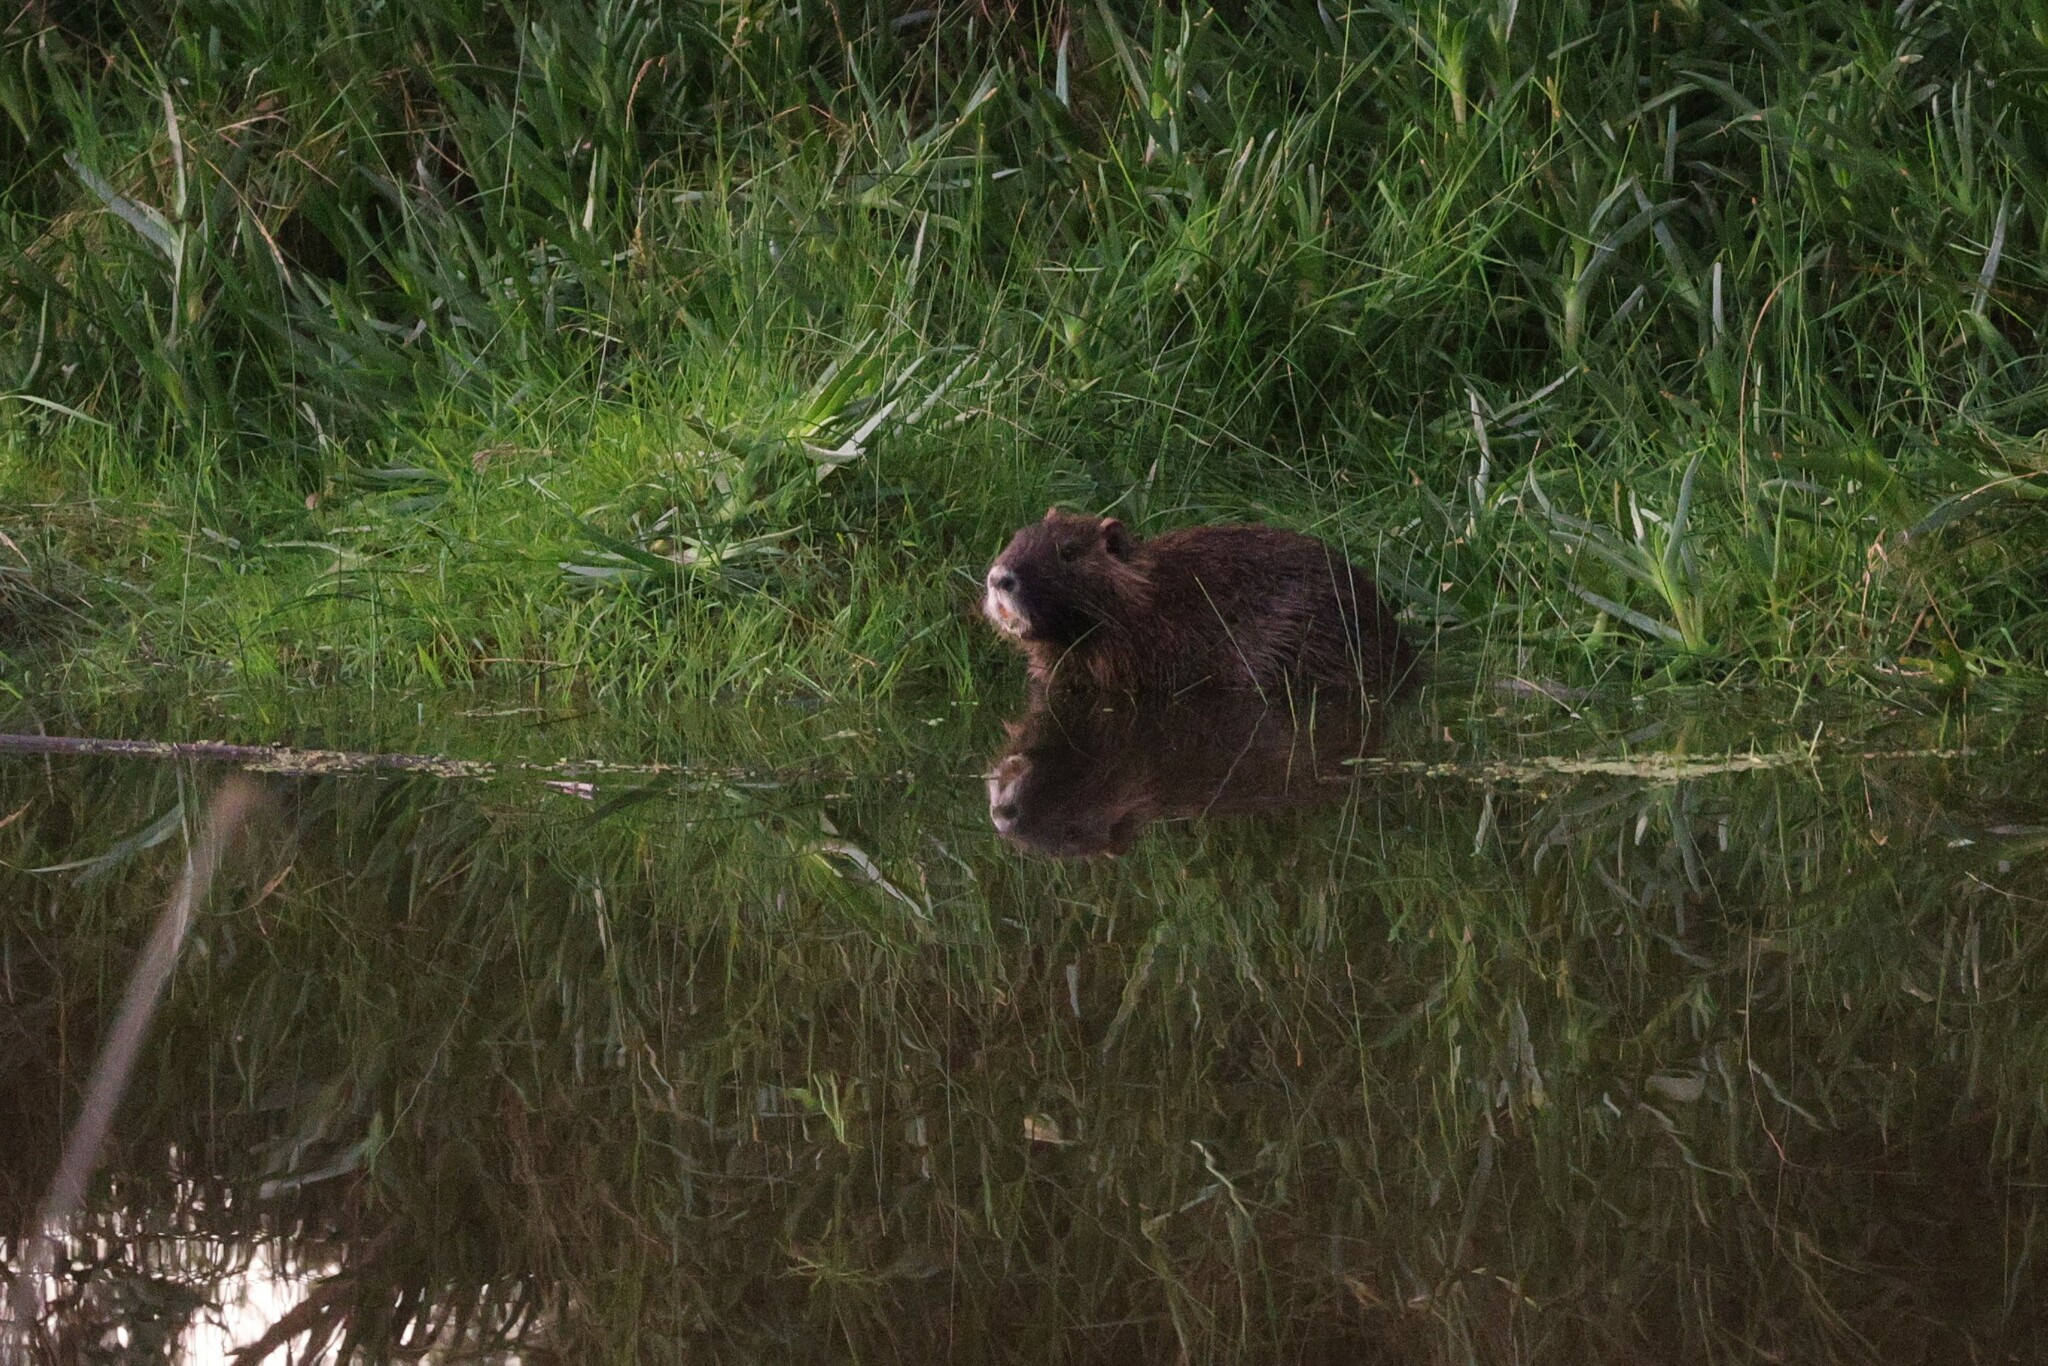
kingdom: Animalia
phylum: Chordata
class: Mammalia
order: Rodentia
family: Myocastoridae
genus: Myocastor
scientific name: Myocastor coypus
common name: Coypu
